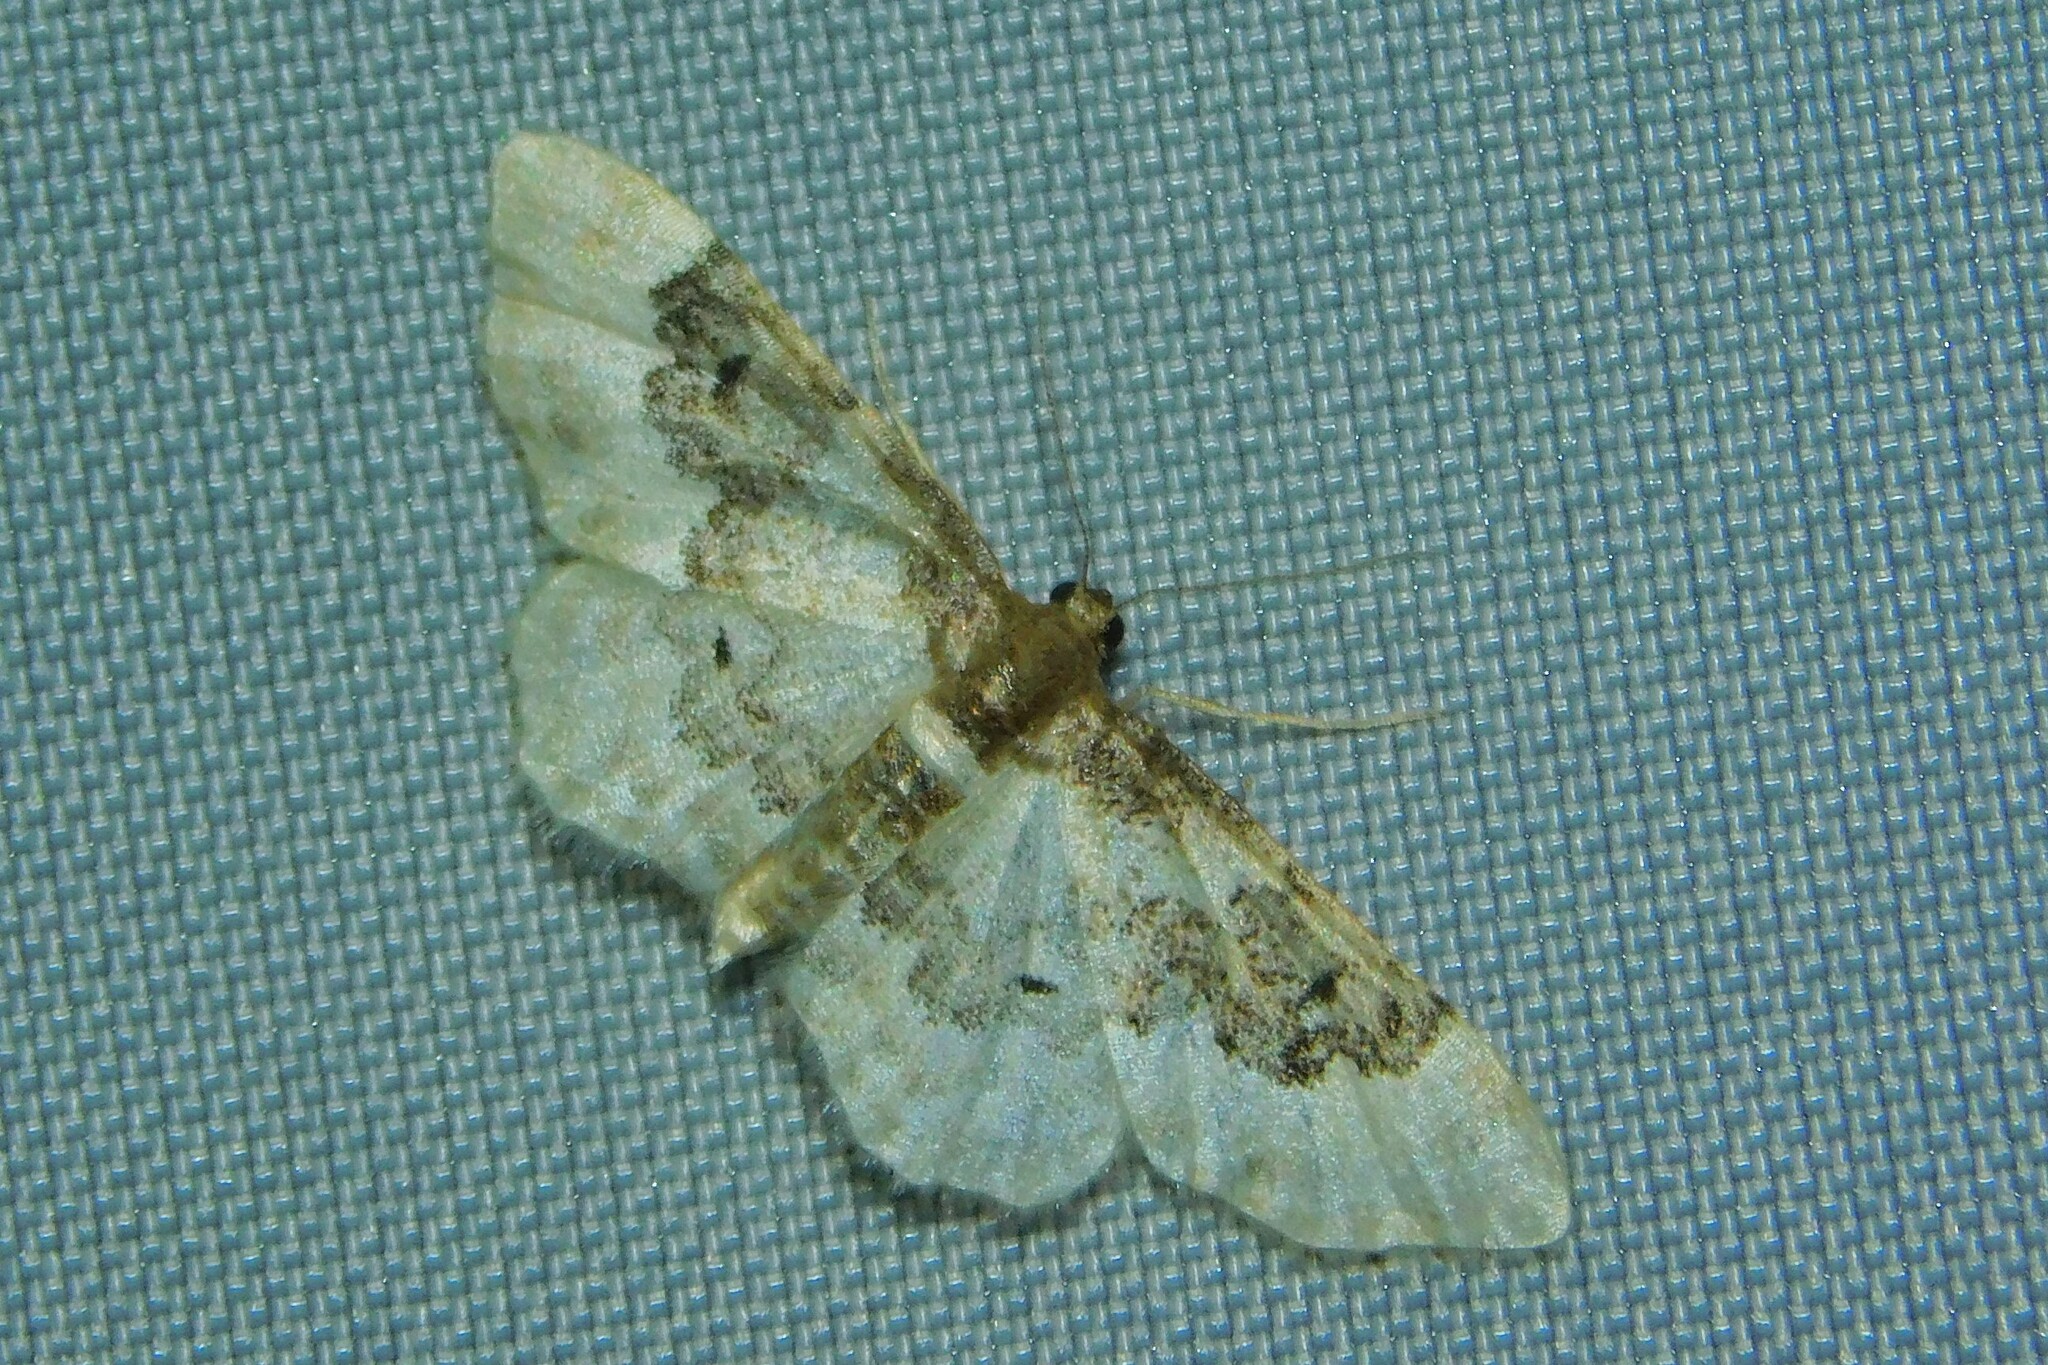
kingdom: Animalia
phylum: Arthropoda
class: Insecta
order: Lepidoptera
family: Geometridae
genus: Idaea
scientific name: Idaea rusticata
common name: Least carpet
